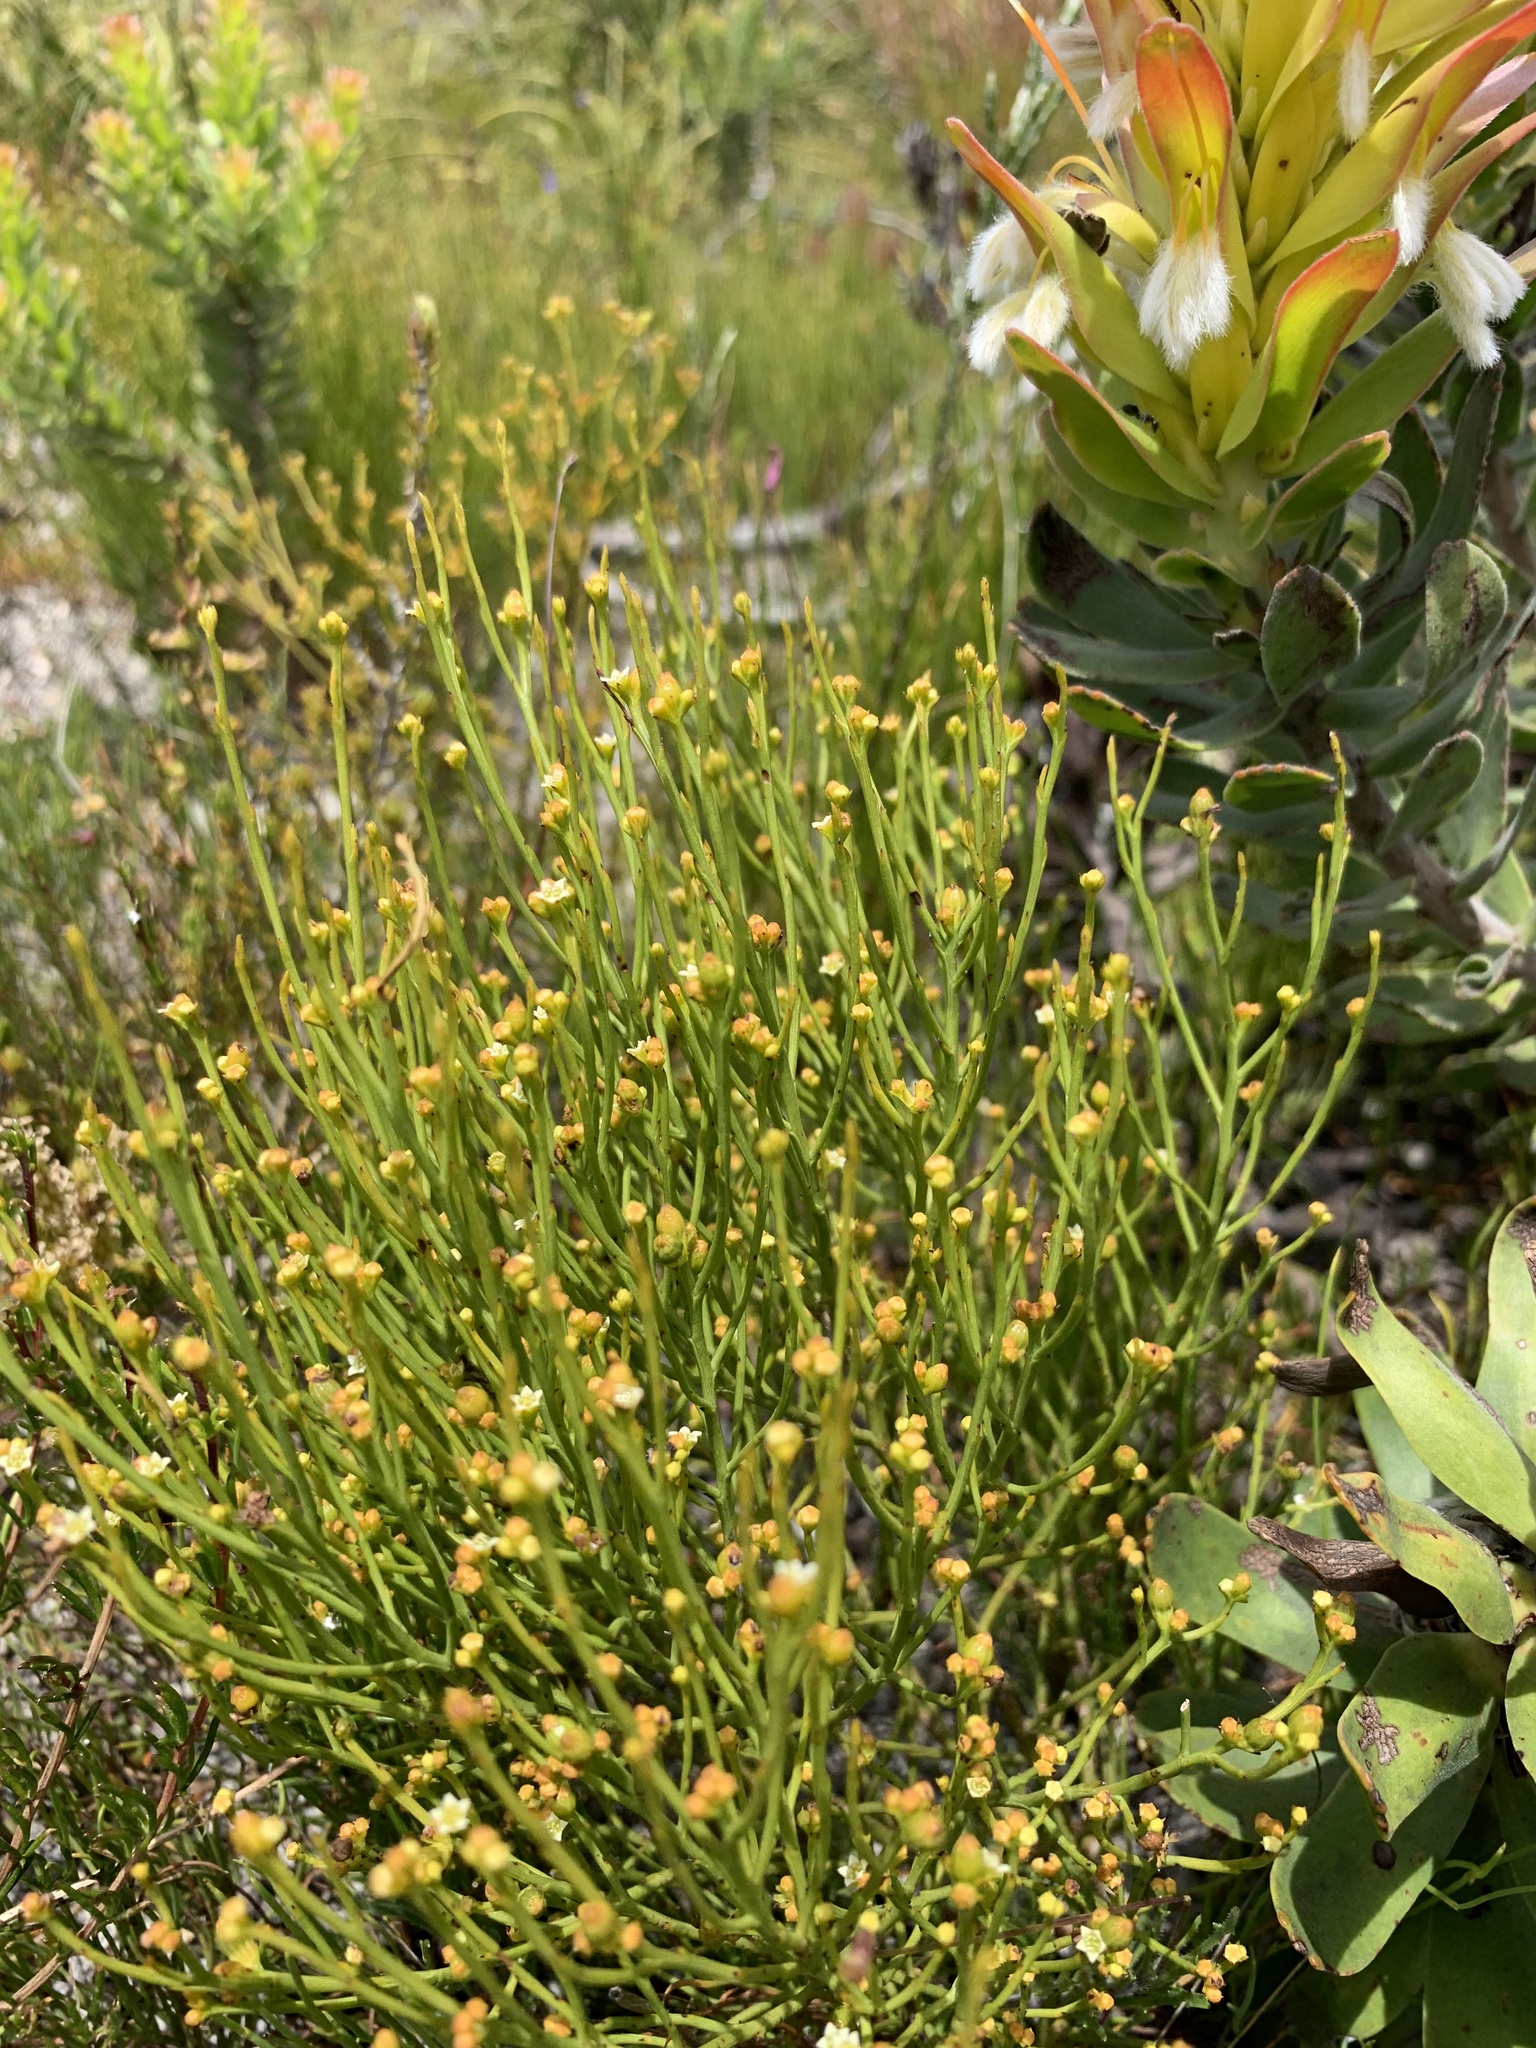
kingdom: Plantae
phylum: Tracheophyta
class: Magnoliopsida
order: Santalales
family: Thesiaceae
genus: Thesium
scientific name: Thesium commutatum
